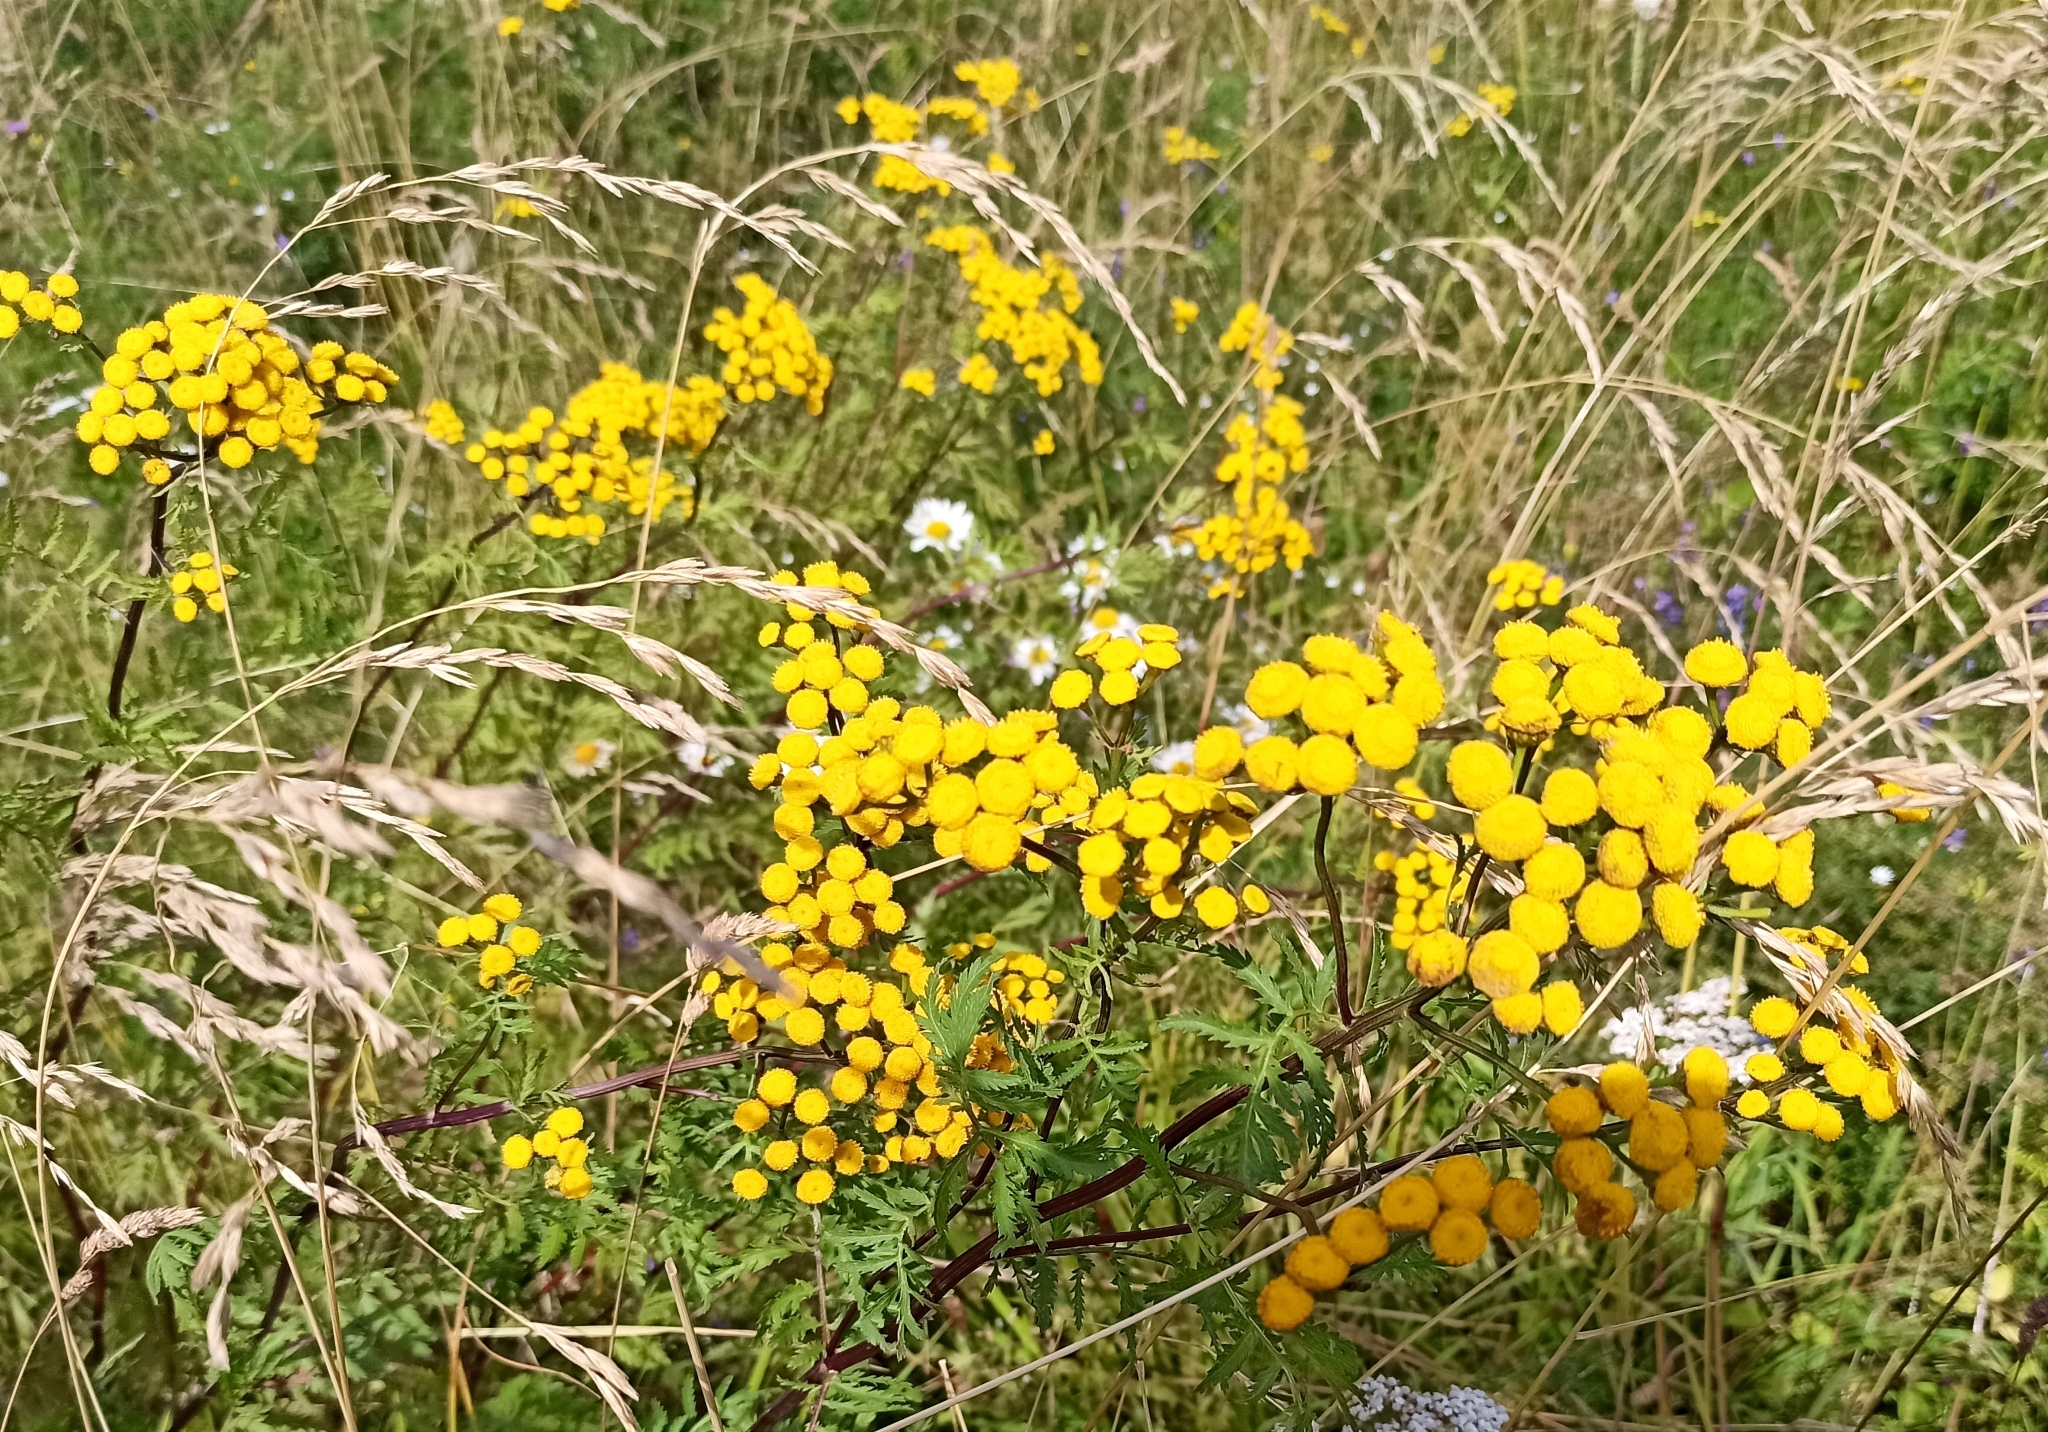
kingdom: Plantae
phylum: Tracheophyta
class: Magnoliopsida
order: Asterales
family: Asteraceae
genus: Tanacetum
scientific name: Tanacetum vulgare
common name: Common tansy
